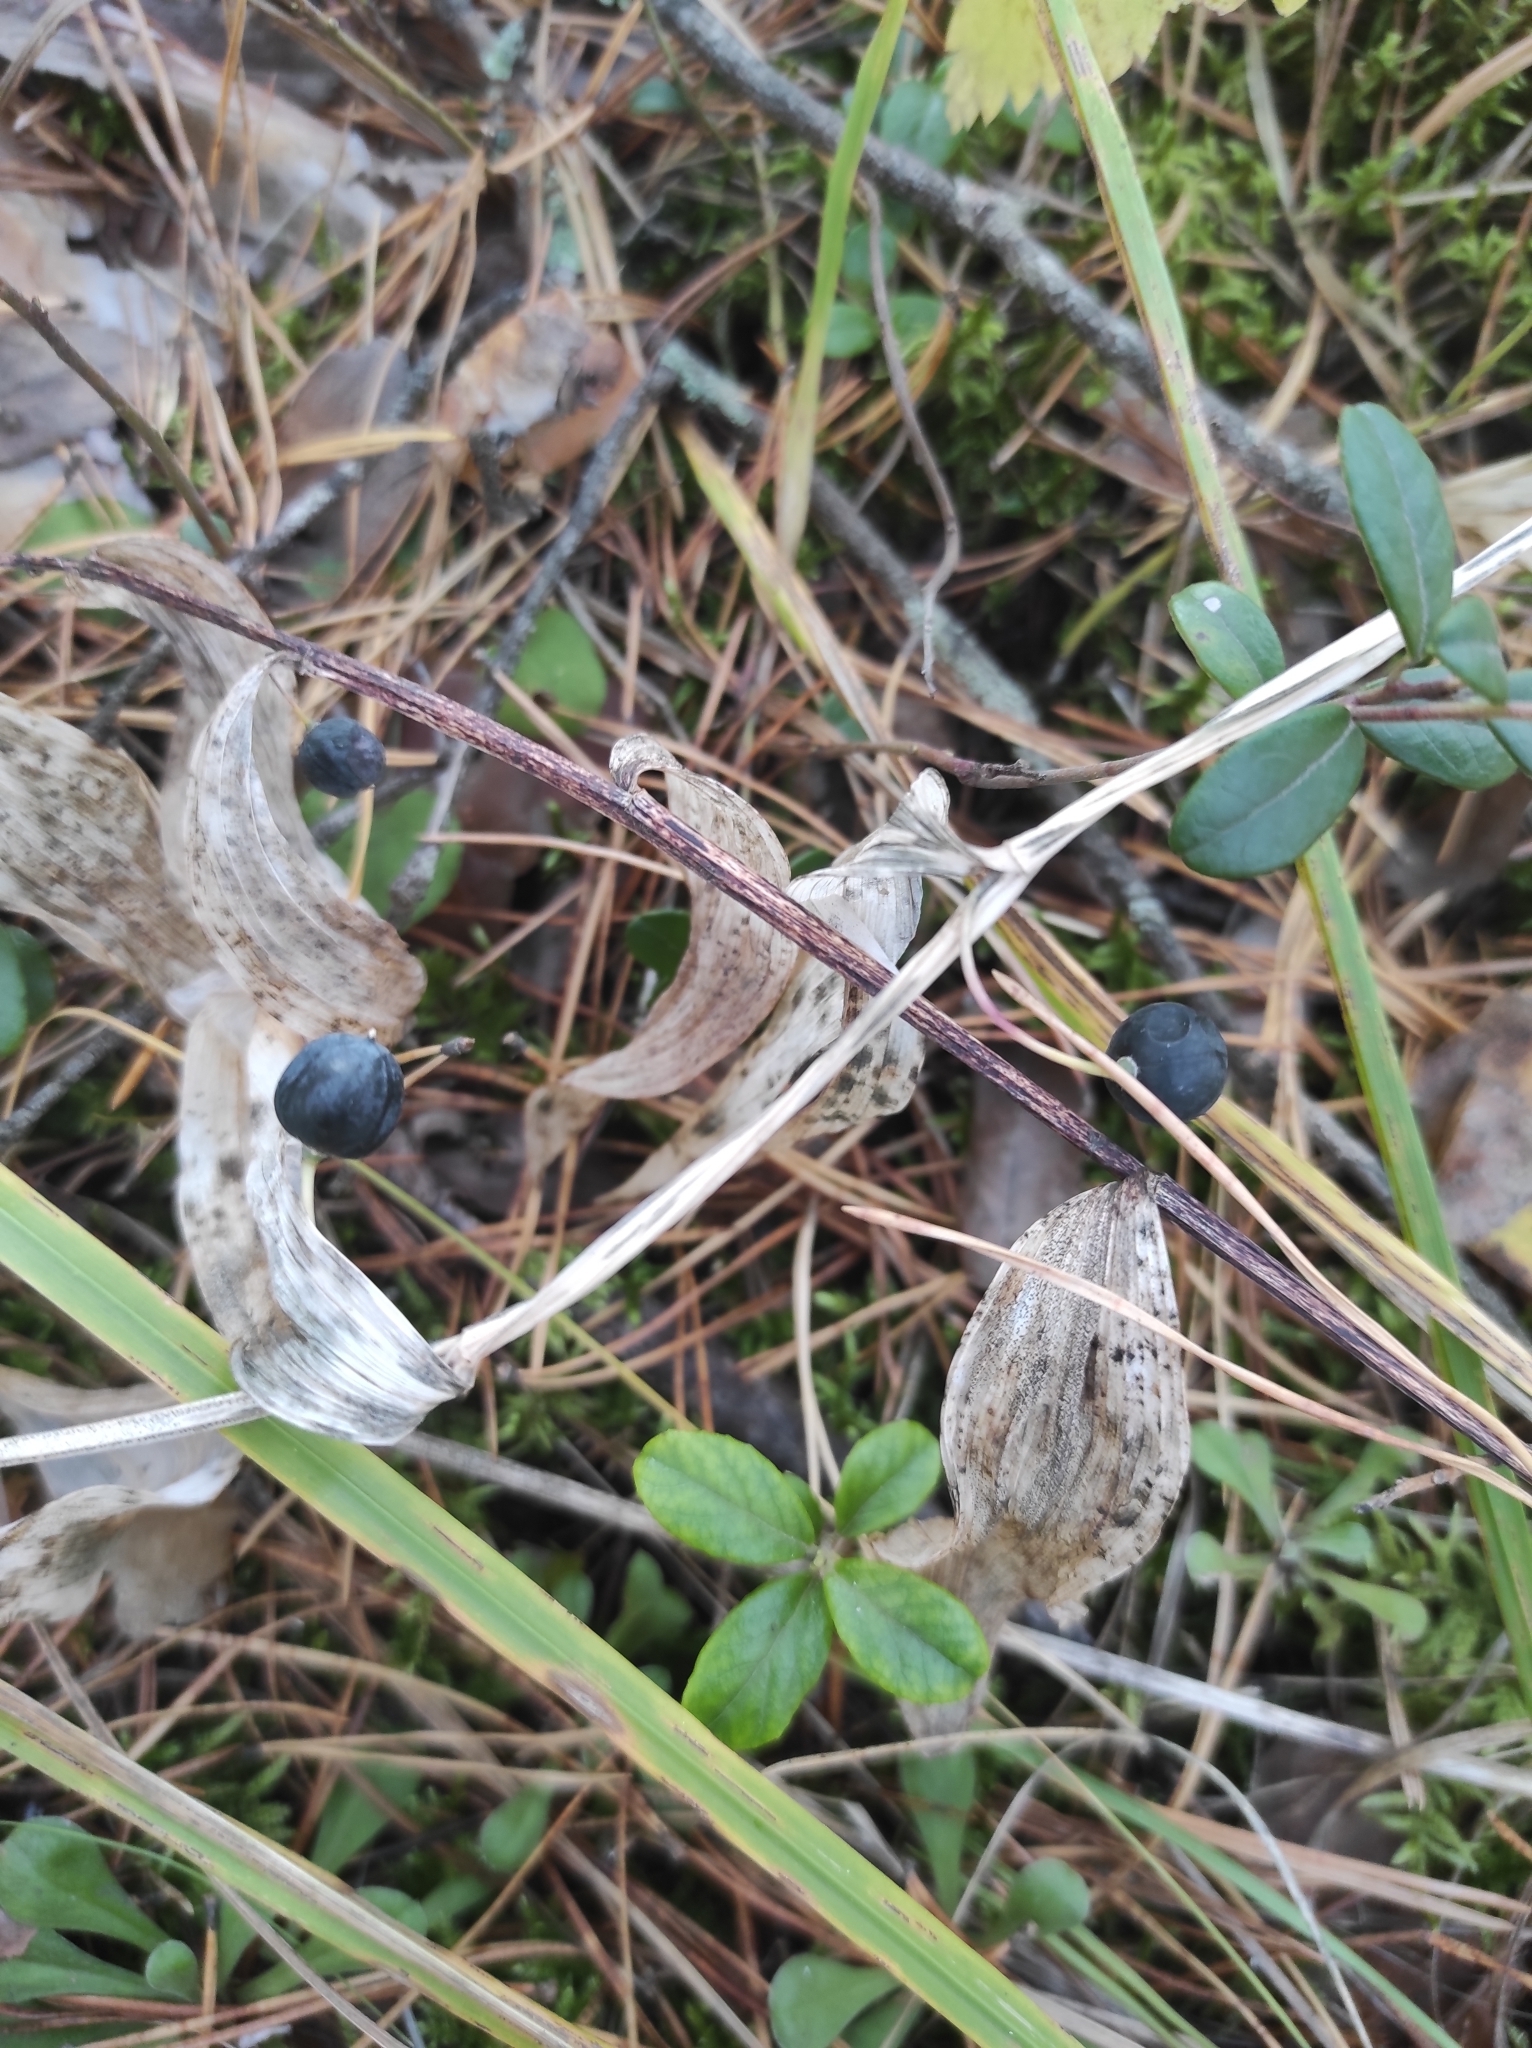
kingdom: Plantae
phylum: Tracheophyta
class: Liliopsida
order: Asparagales
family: Asparagaceae
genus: Polygonatum
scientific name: Polygonatum odoratum
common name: Angular solomon's-seal
